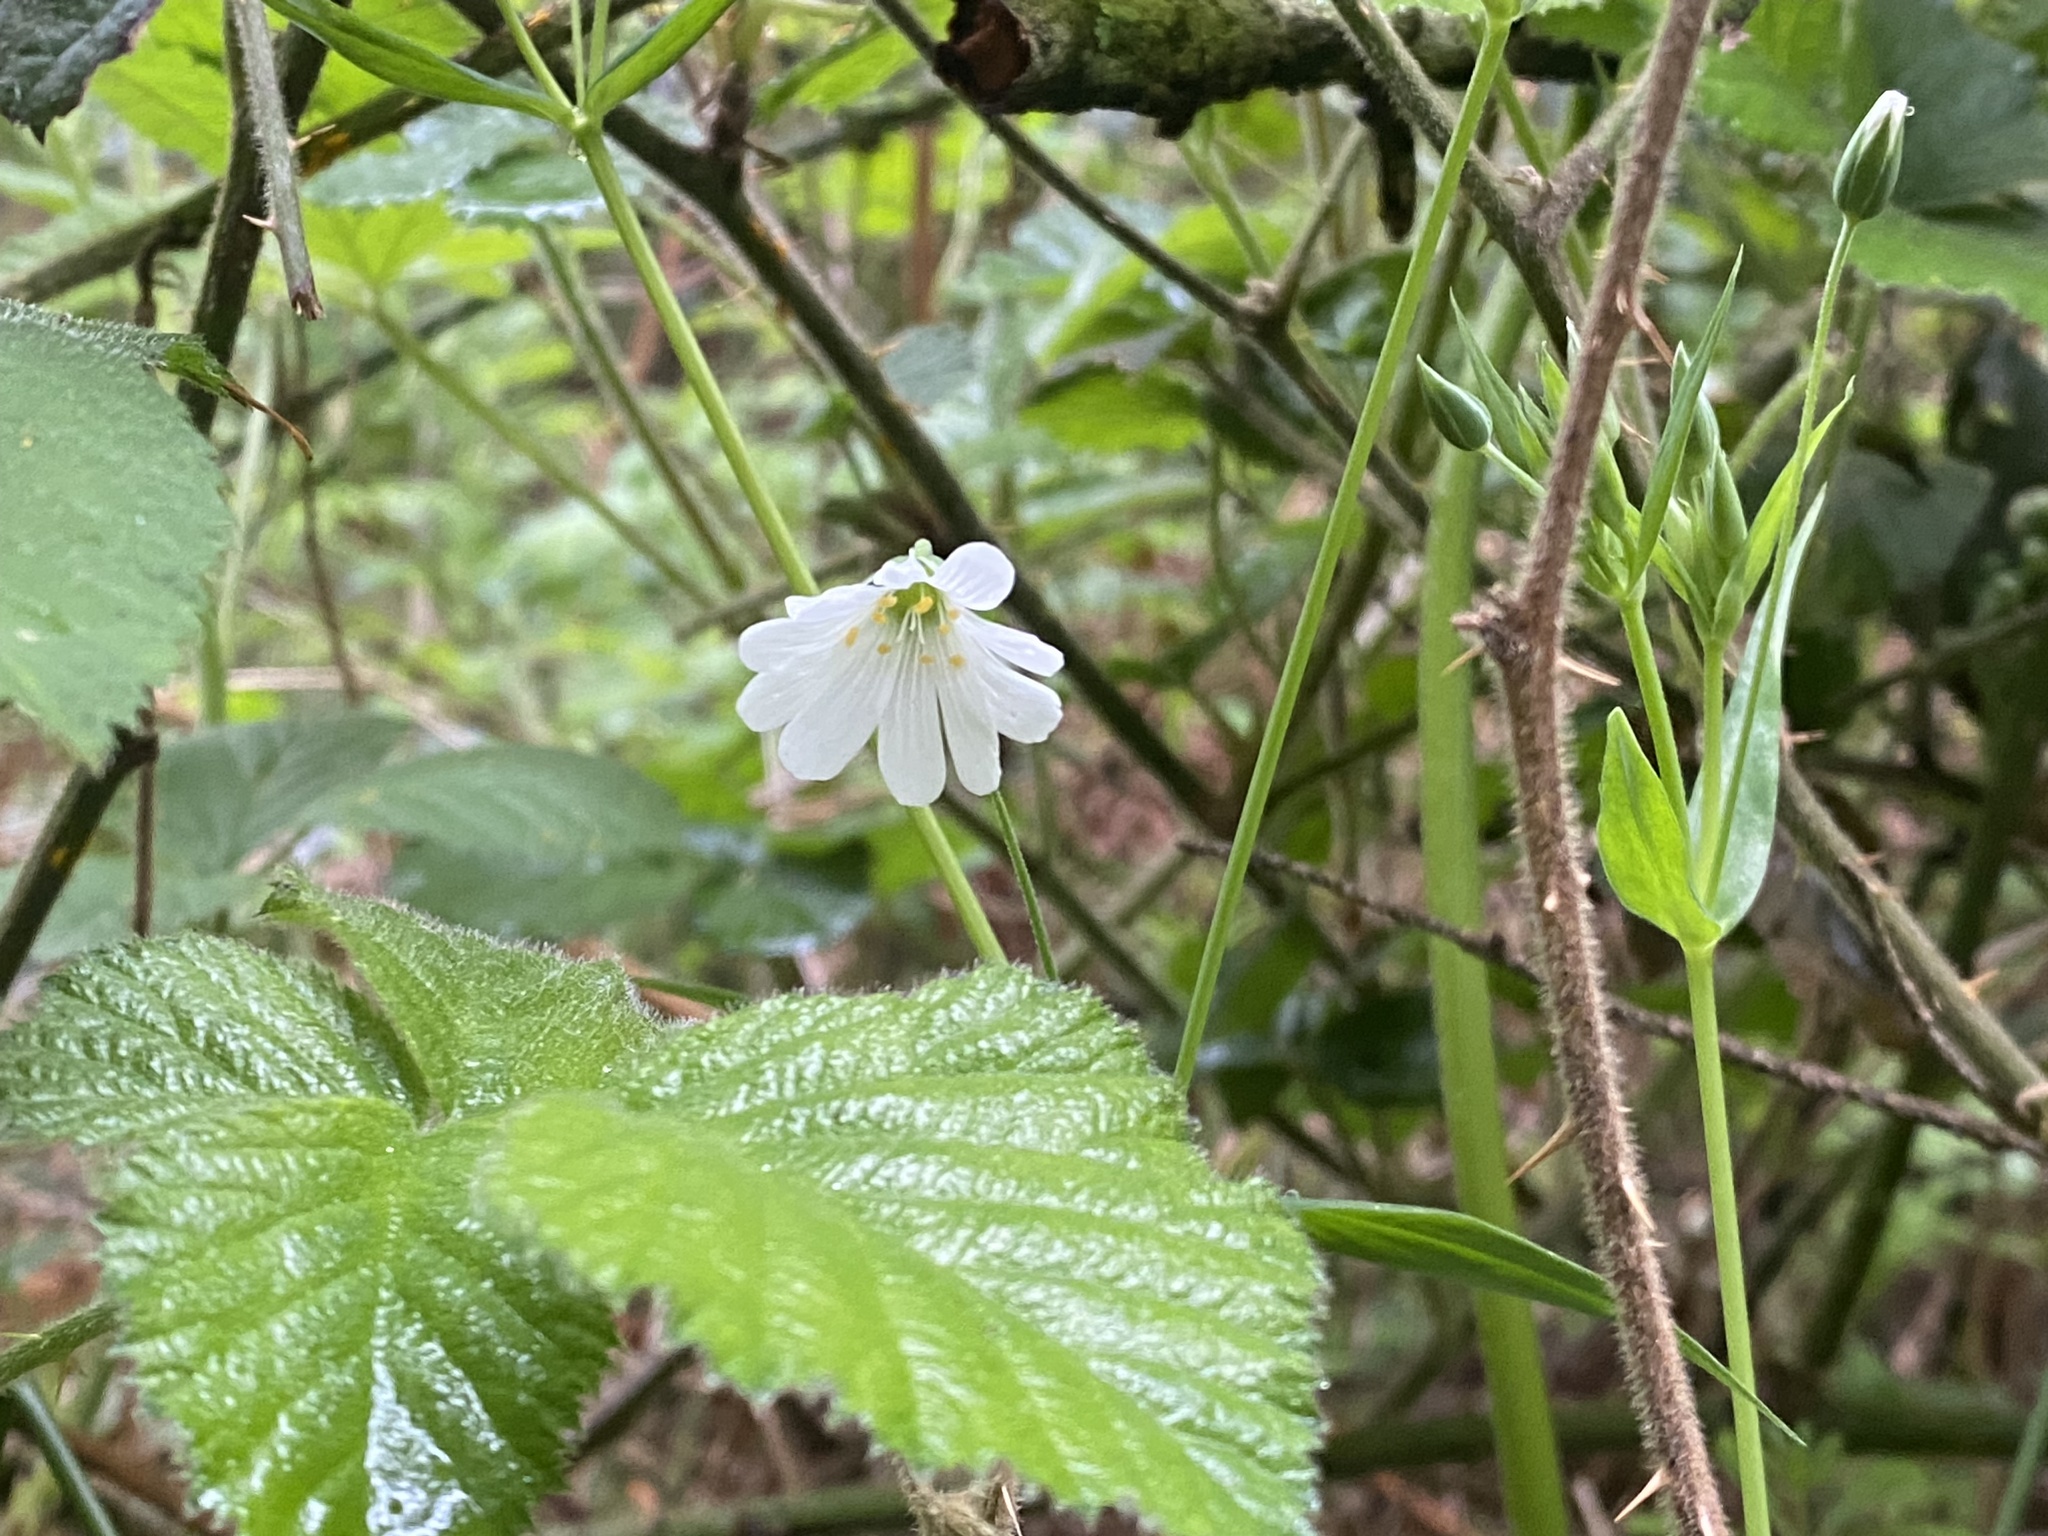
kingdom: Plantae
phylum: Tracheophyta
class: Magnoliopsida
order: Caryophyllales
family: Caryophyllaceae
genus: Rabelera
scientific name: Rabelera holostea
